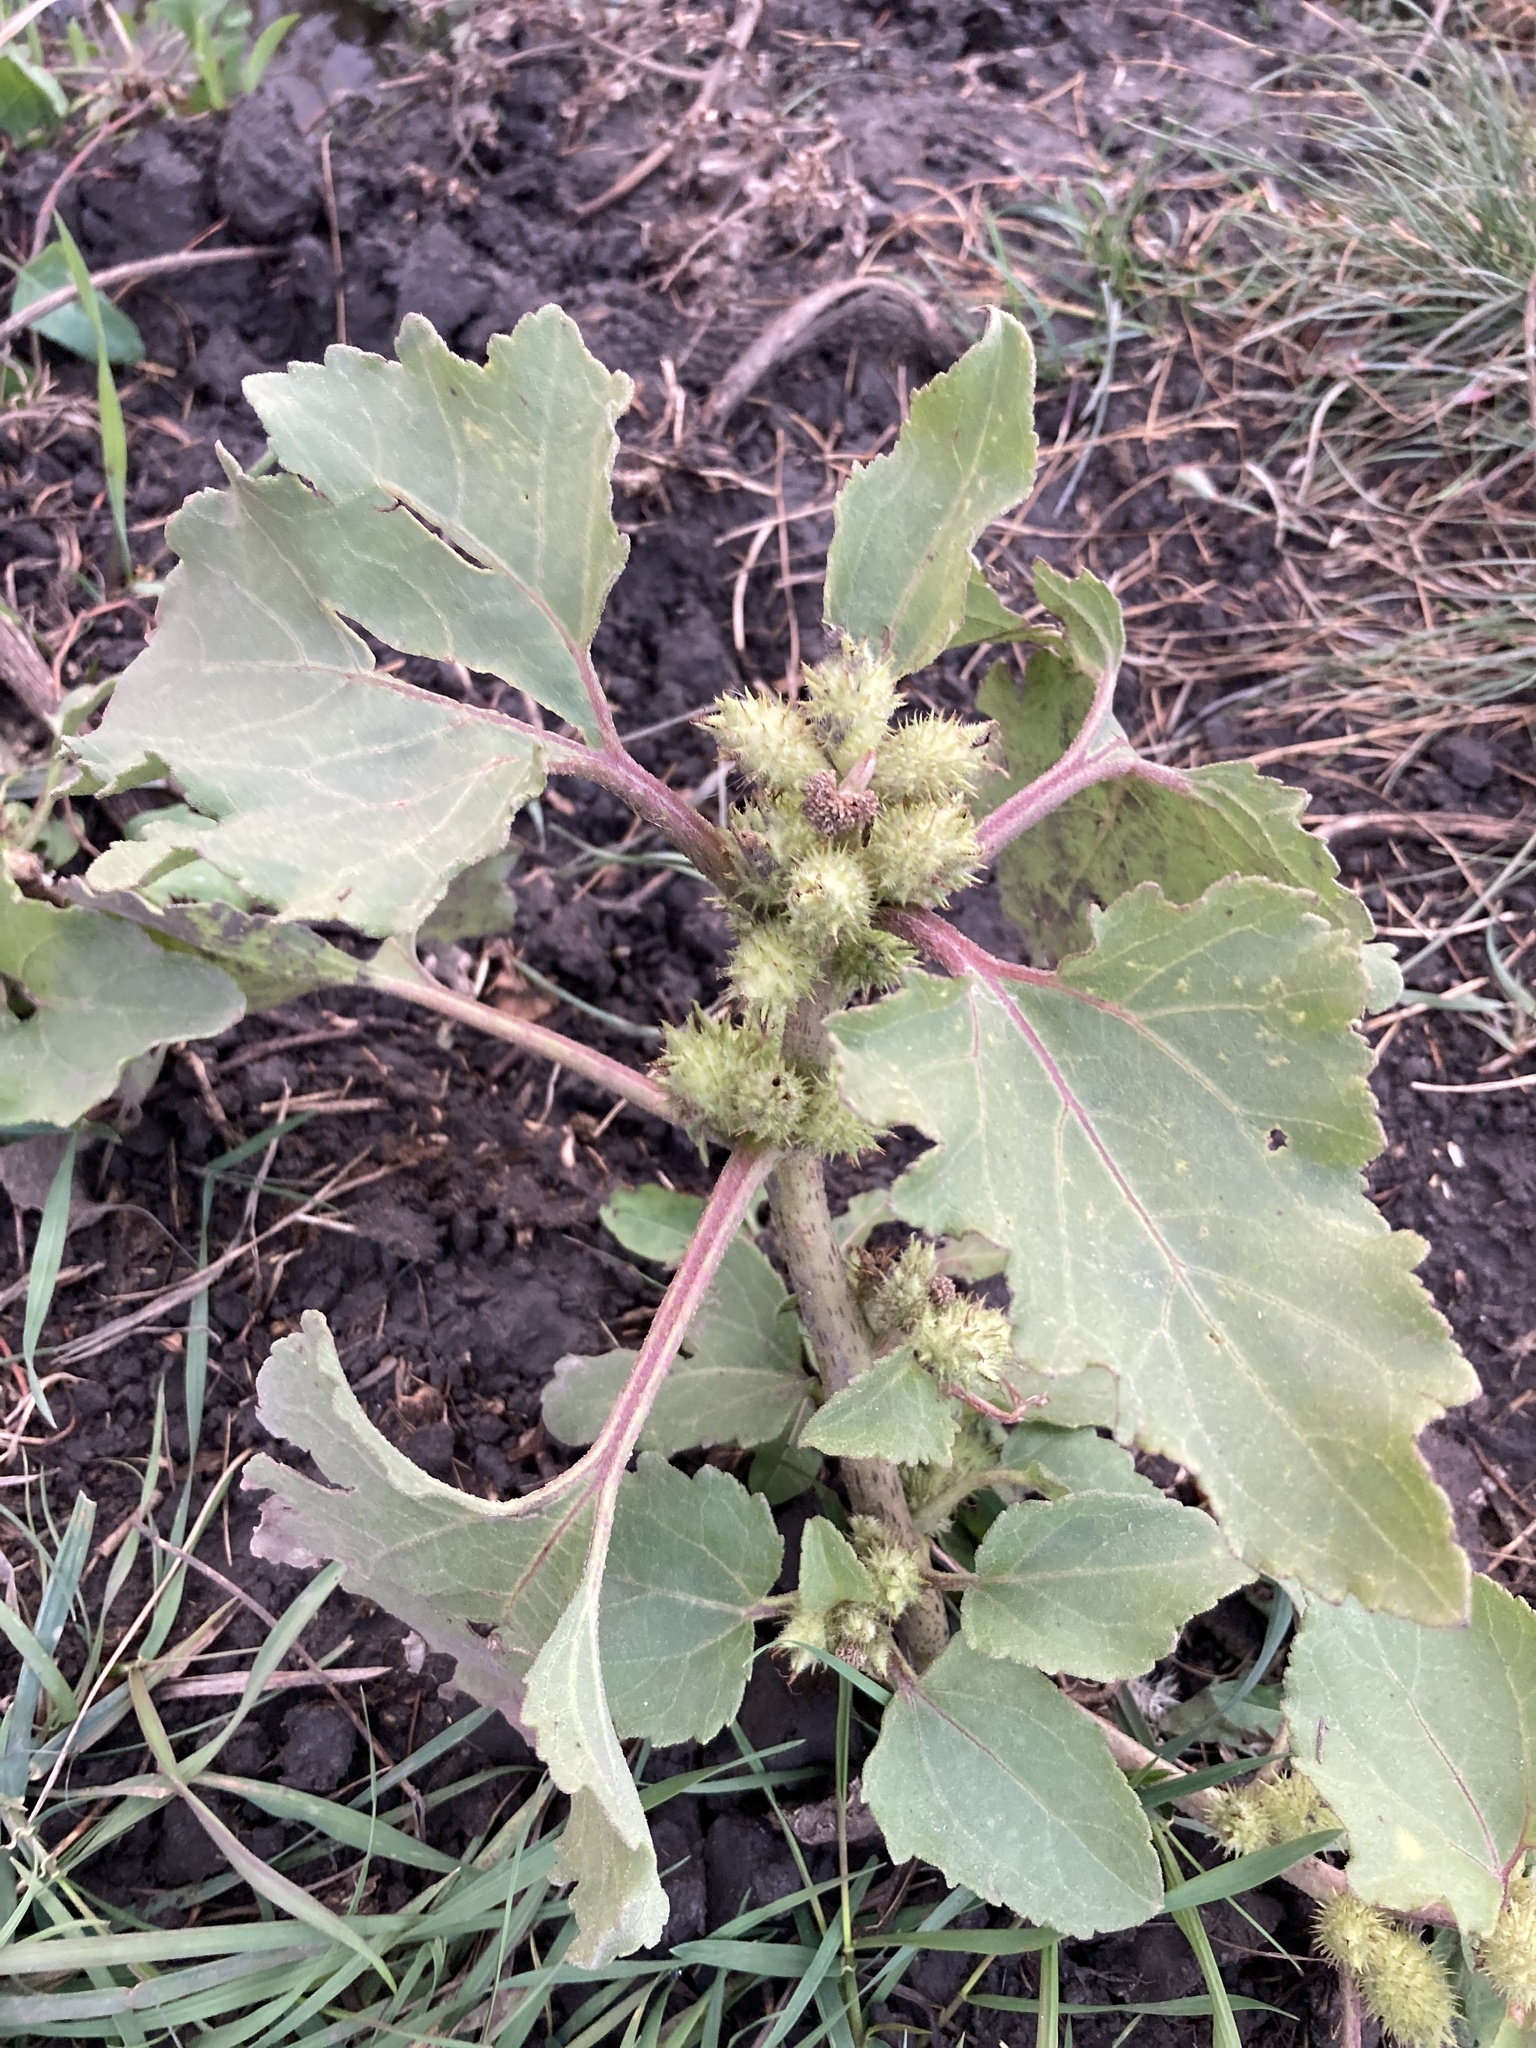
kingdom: Plantae
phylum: Tracheophyta
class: Magnoliopsida
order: Asterales
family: Asteraceae
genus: Xanthium
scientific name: Xanthium orientale
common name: Californian burr
